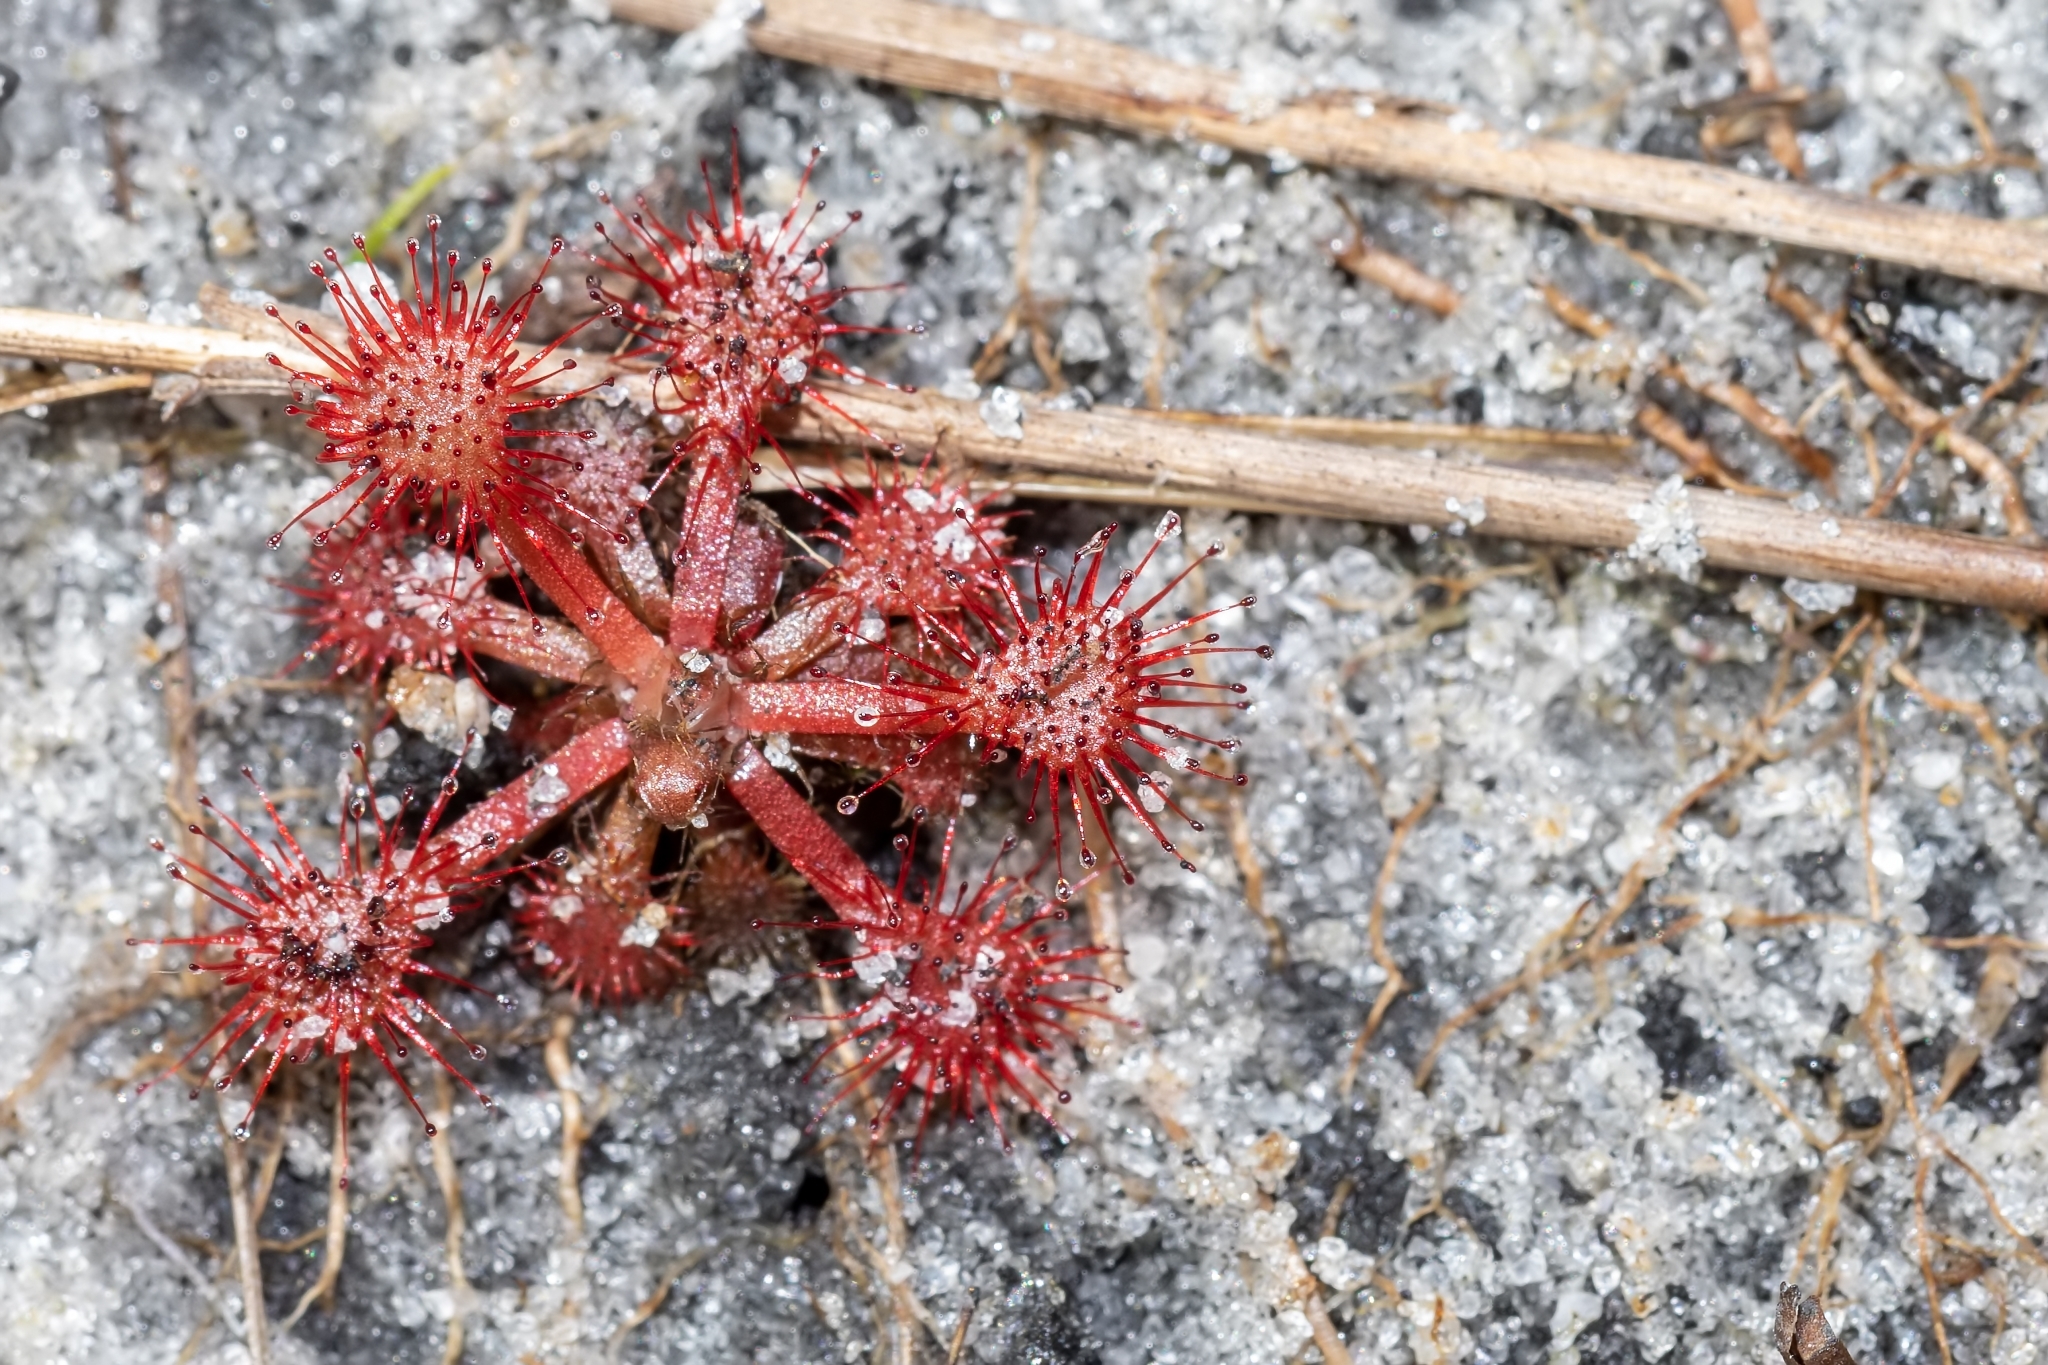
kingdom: Plantae
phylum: Tracheophyta
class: Magnoliopsida
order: Caryophyllales
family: Droseraceae
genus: Drosera
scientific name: Drosera capillaris
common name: Pink sundew
